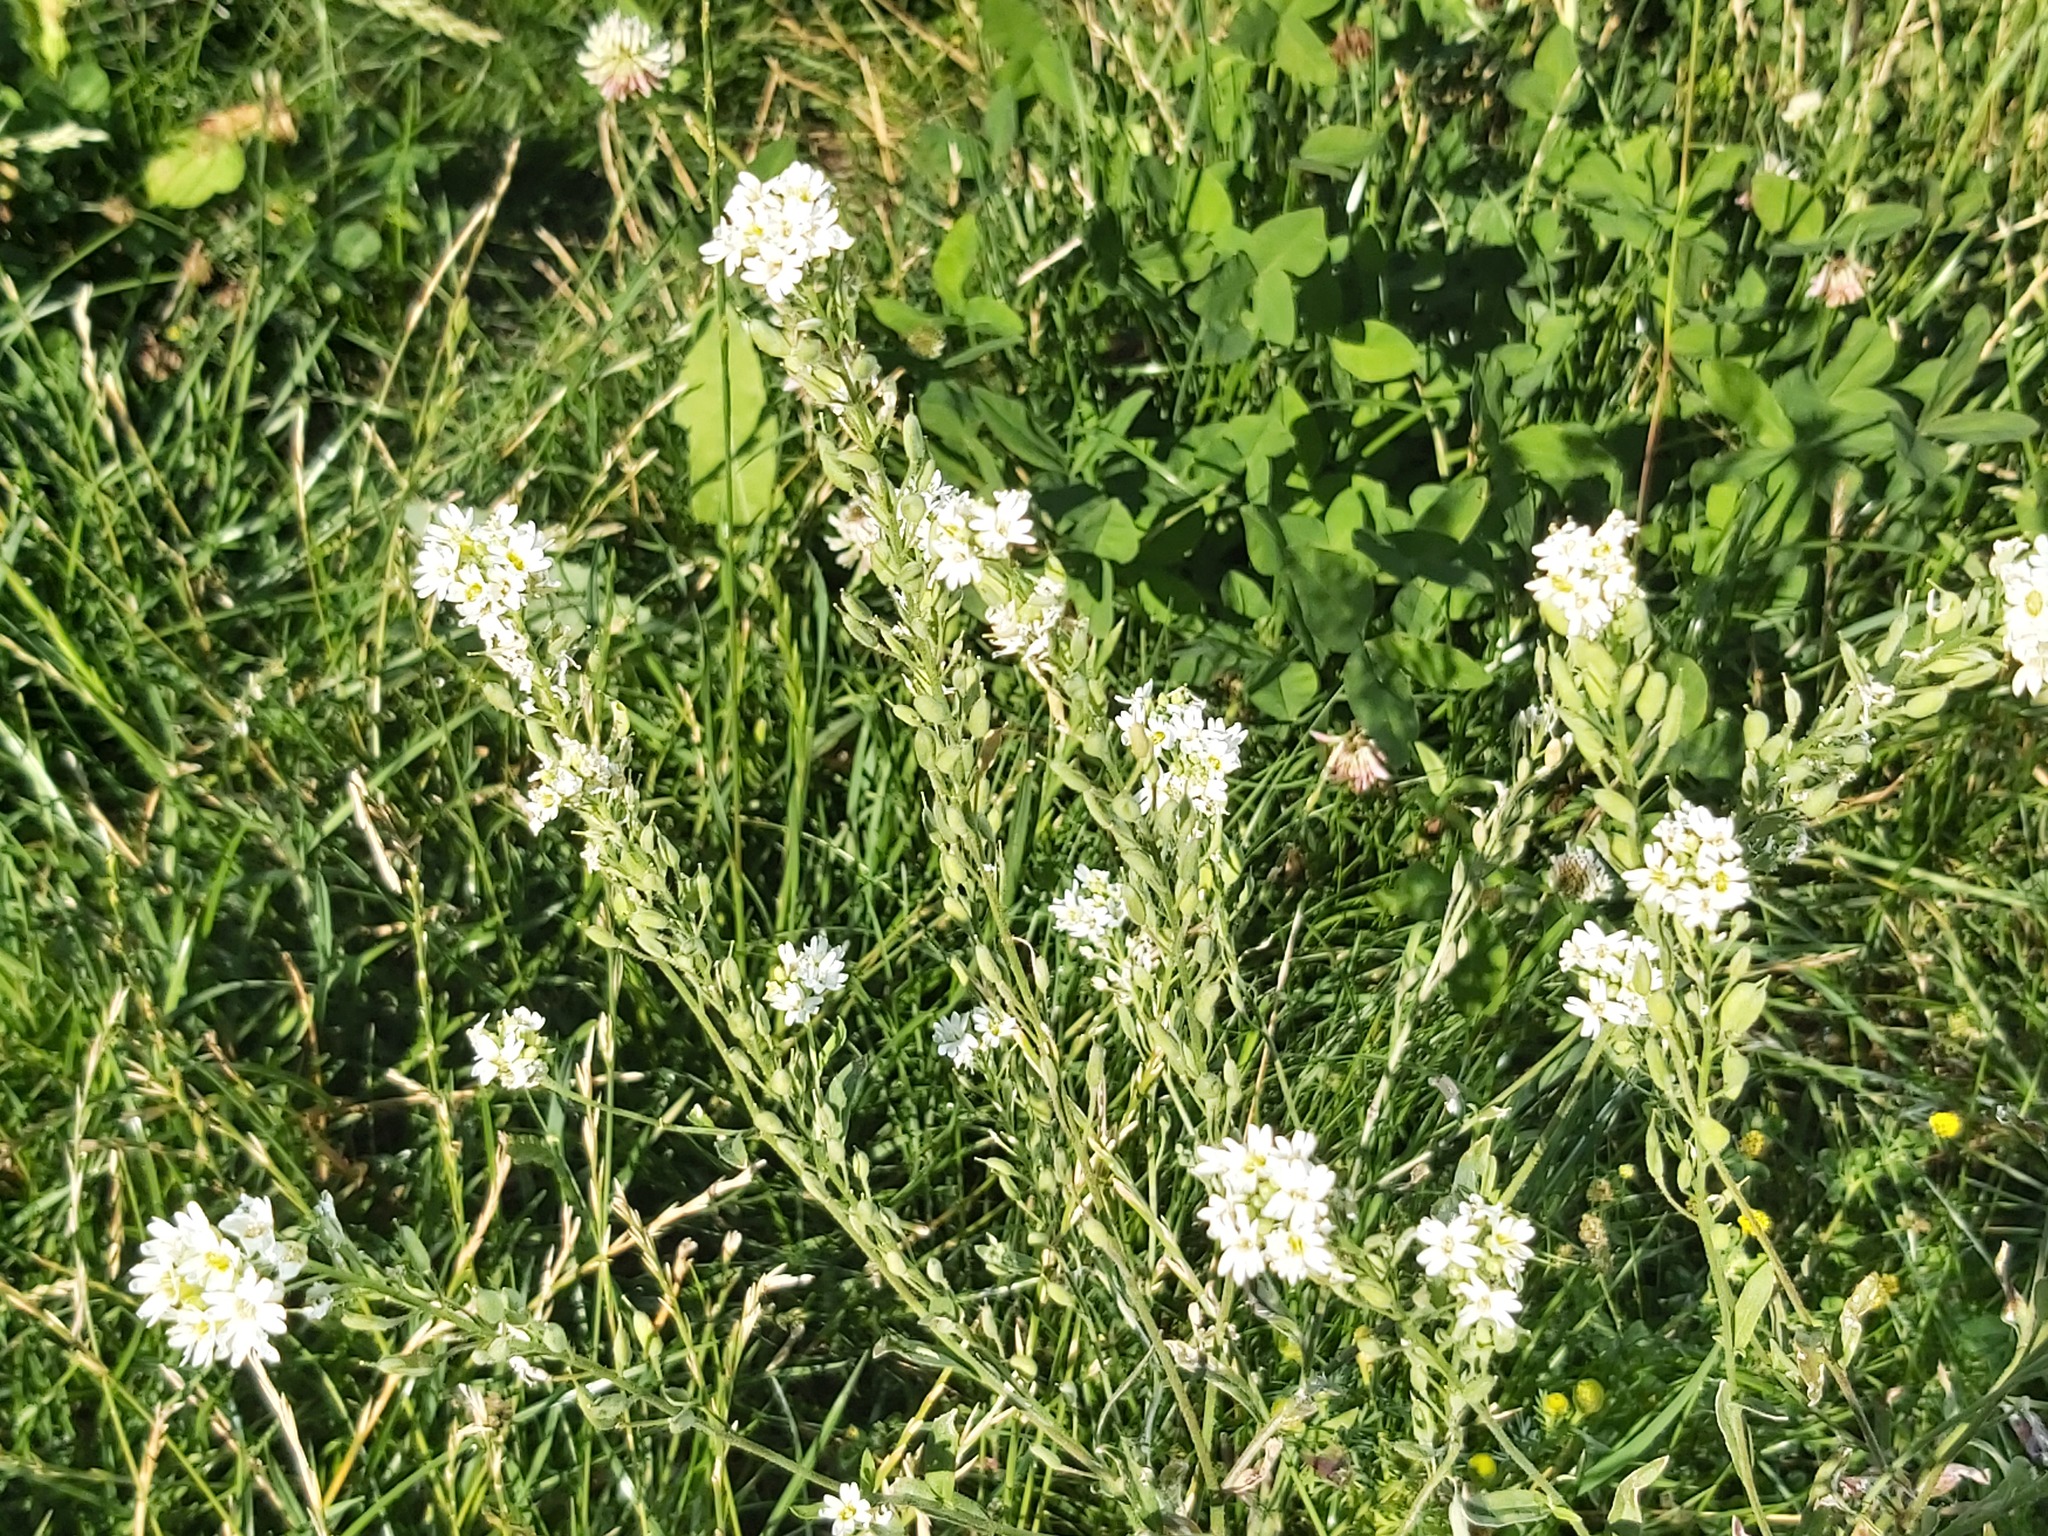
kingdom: Plantae
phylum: Tracheophyta
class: Magnoliopsida
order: Brassicales
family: Brassicaceae
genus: Berteroa
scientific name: Berteroa incana
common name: Hoary alison
